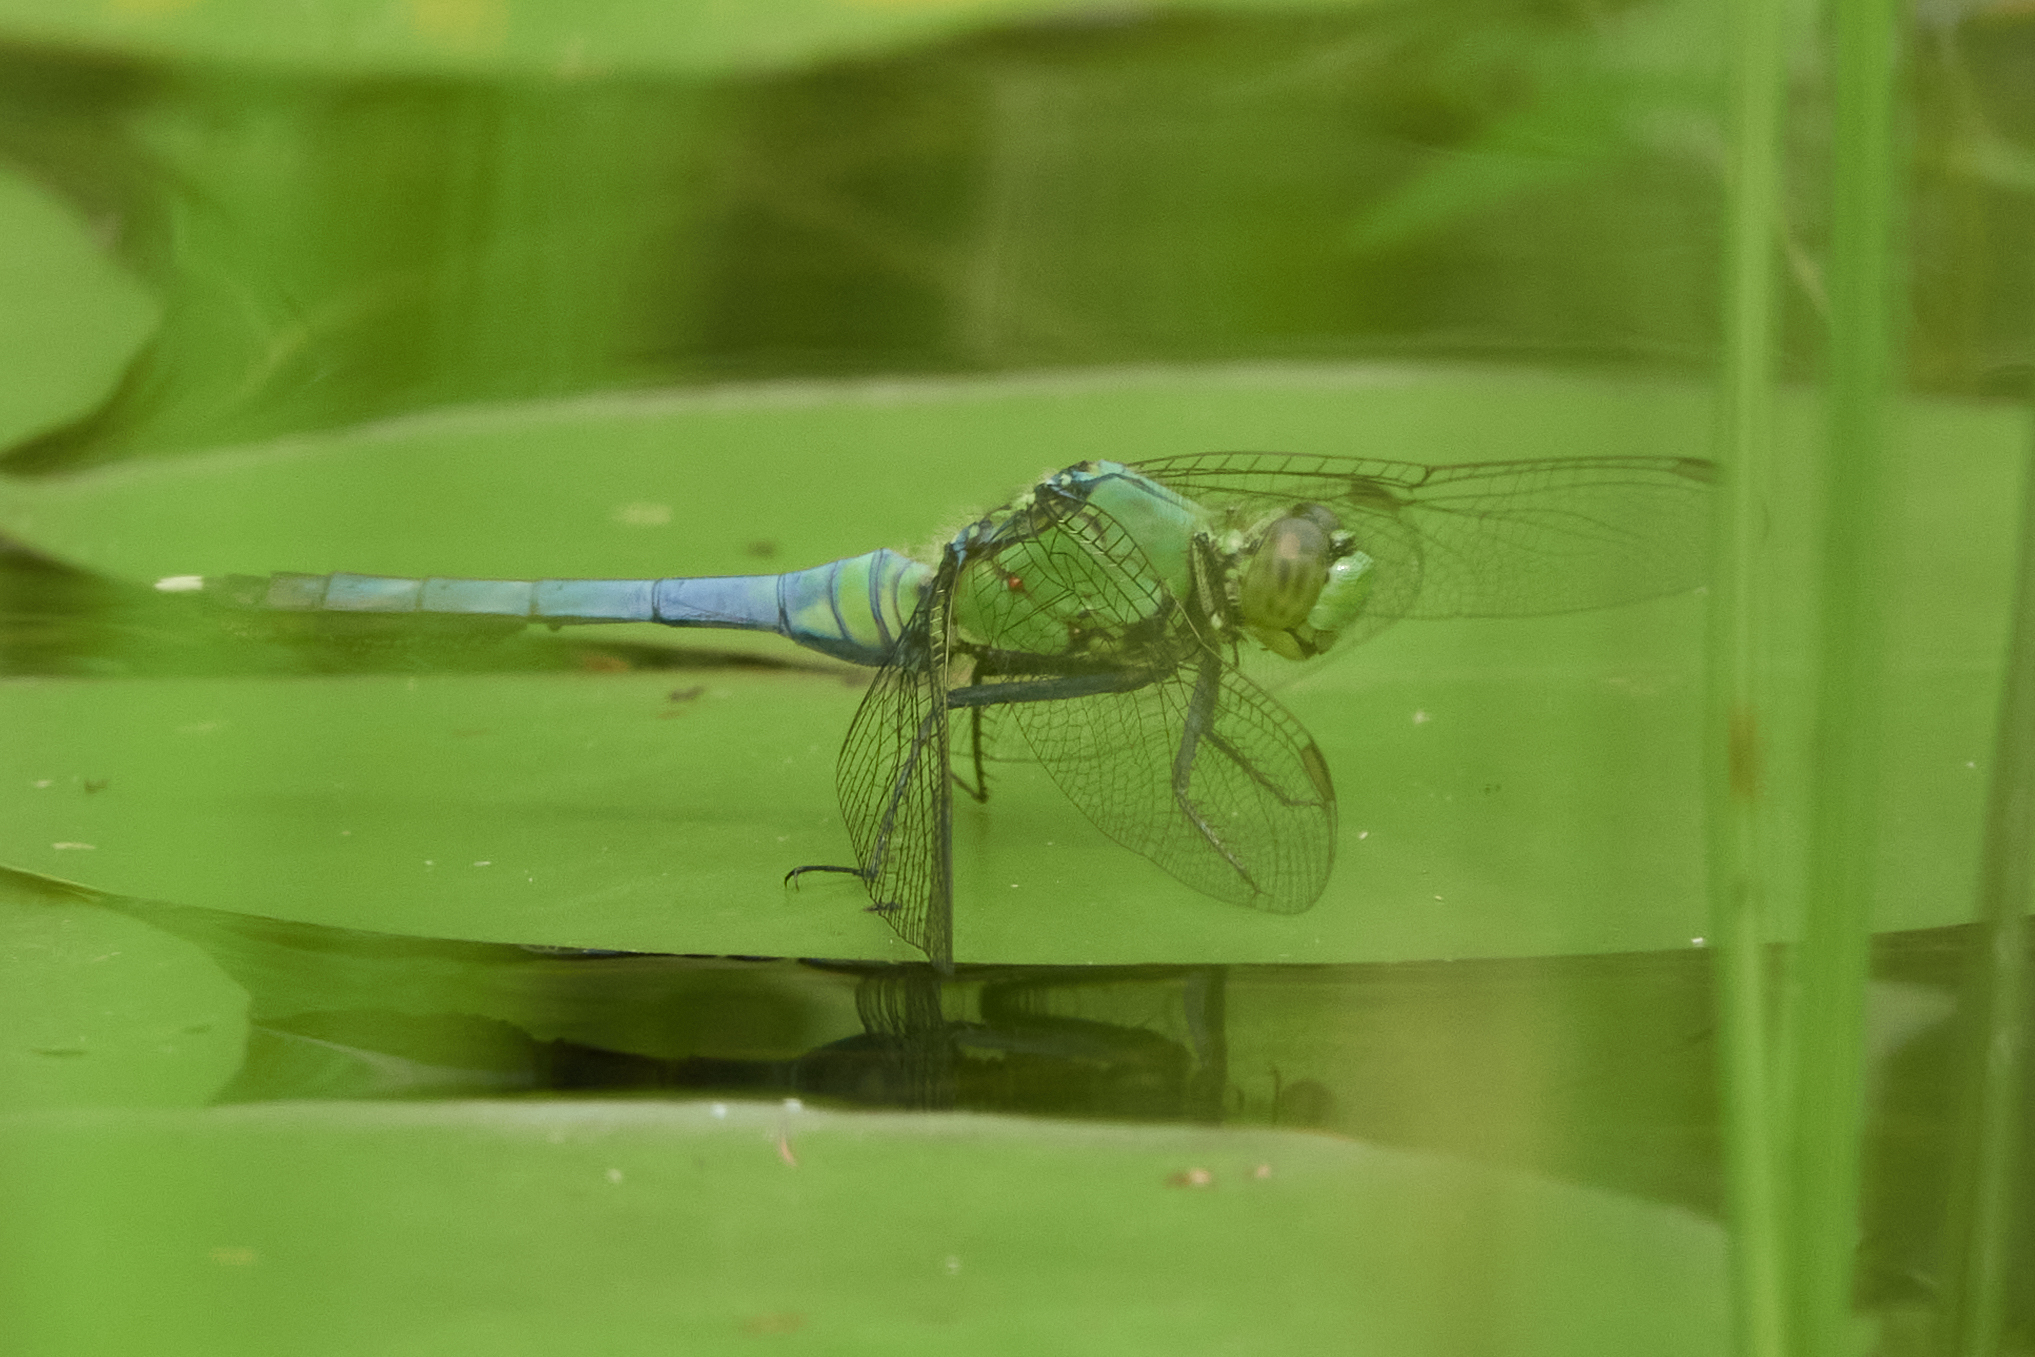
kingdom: Animalia
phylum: Arthropoda
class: Insecta
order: Odonata
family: Libellulidae
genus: Erythemis
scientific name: Erythemis simplicicollis
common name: Eastern pondhawk
